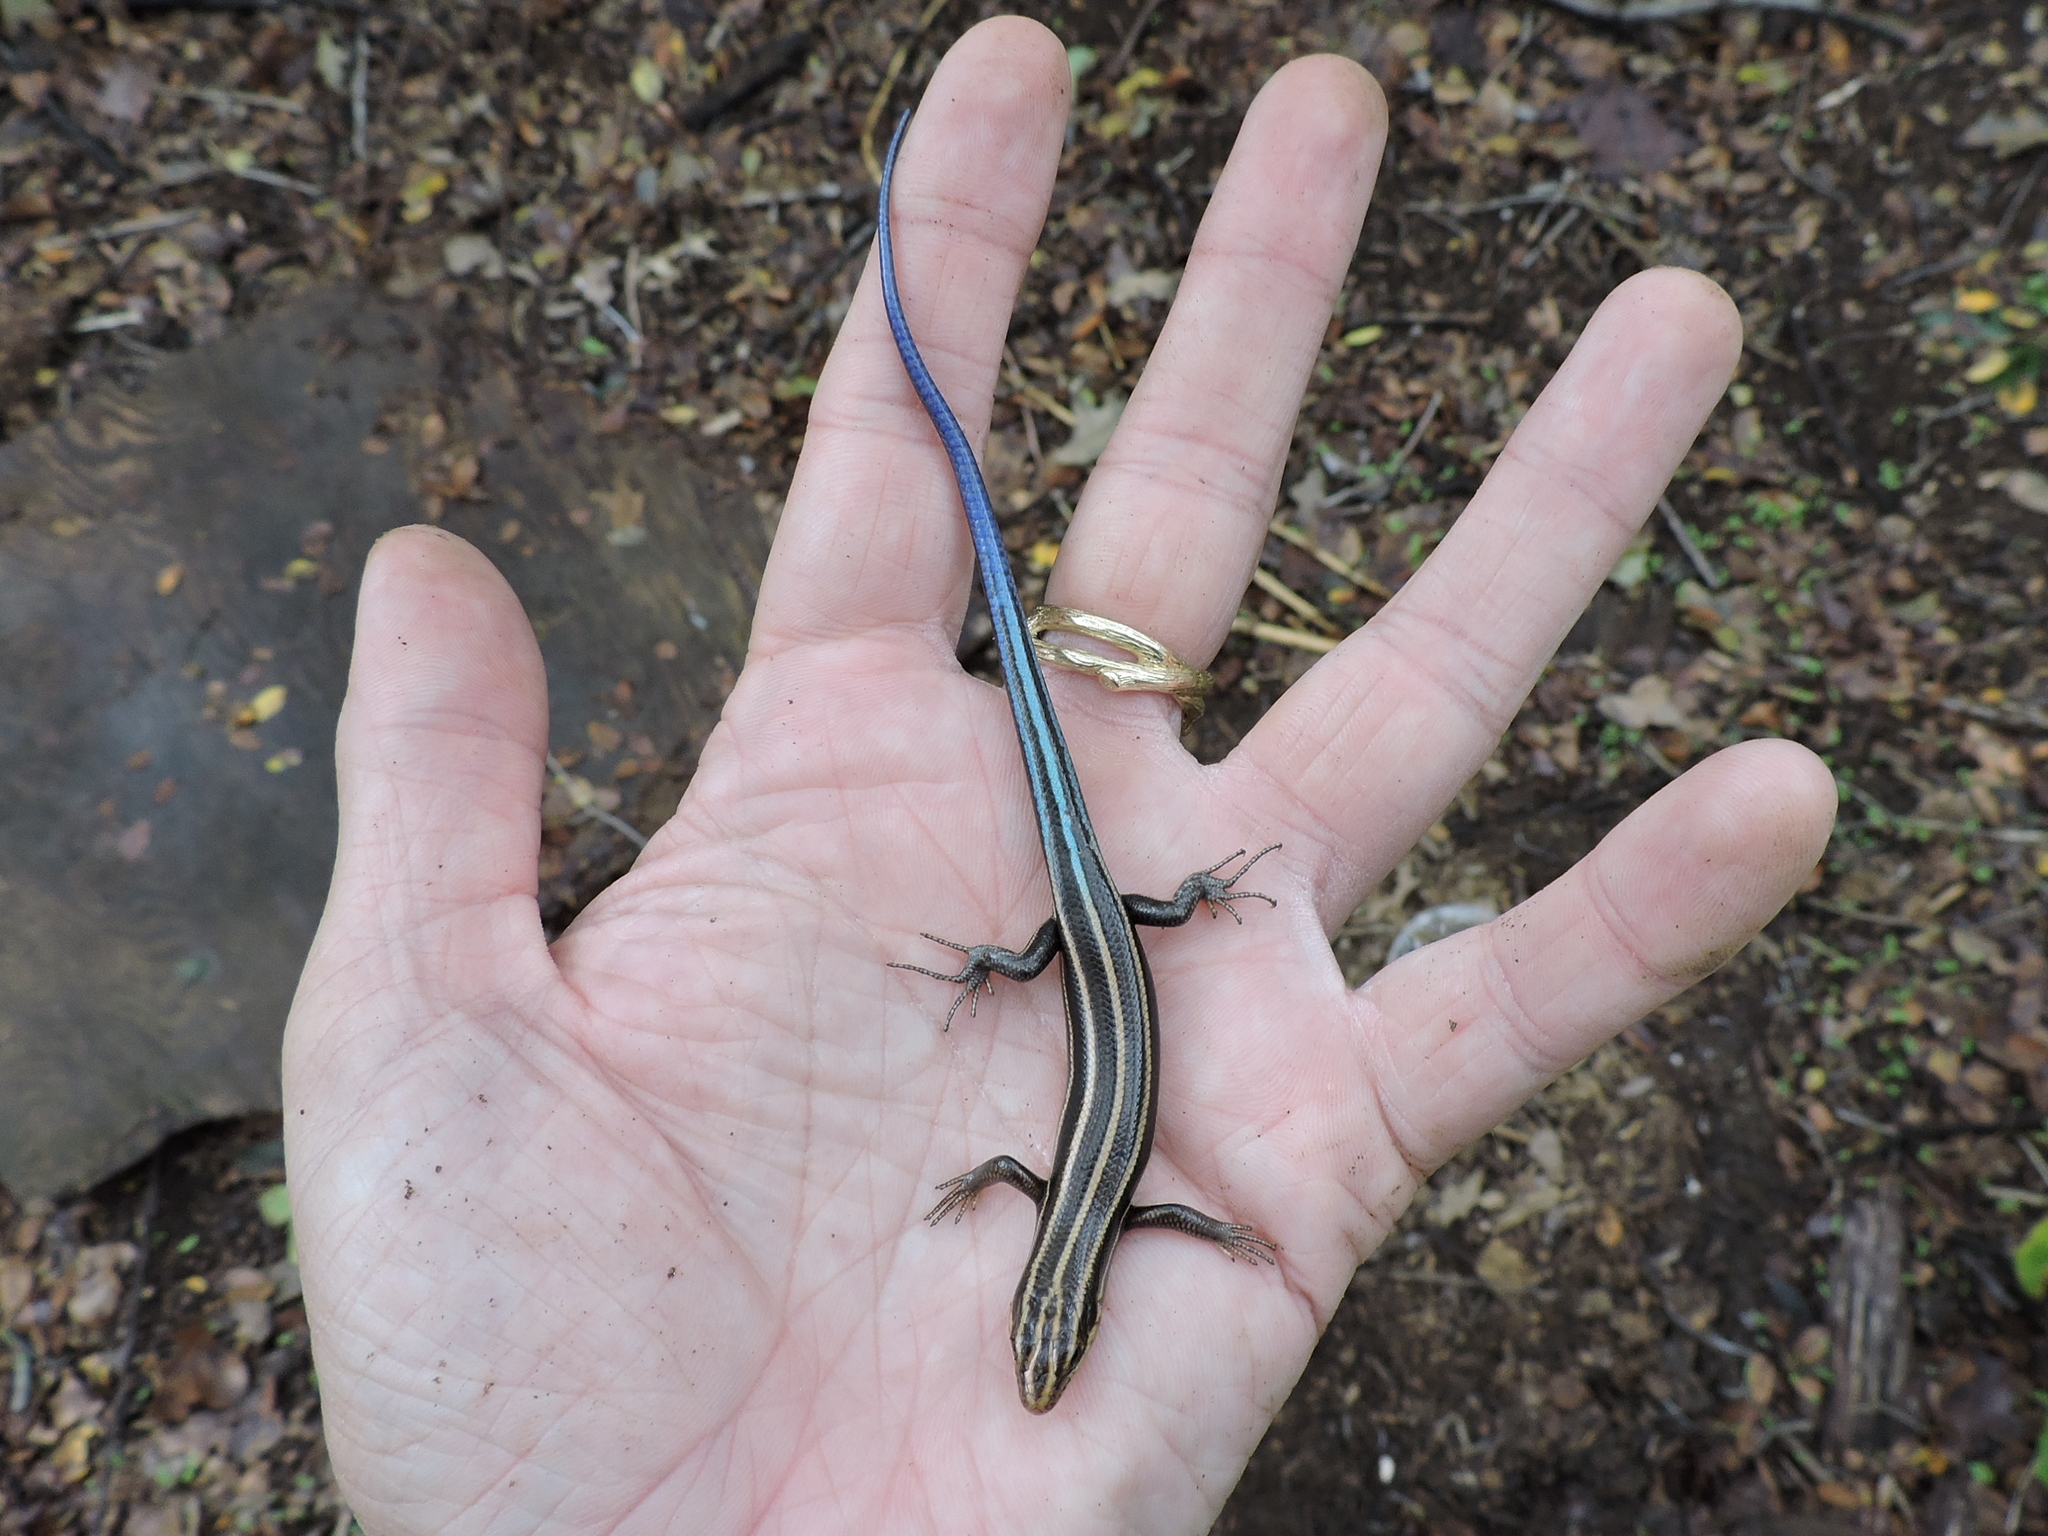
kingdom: Animalia
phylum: Chordata
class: Squamata
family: Scincidae
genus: Plestiodon
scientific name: Plestiodon fasciatus
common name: Five-lined skink
